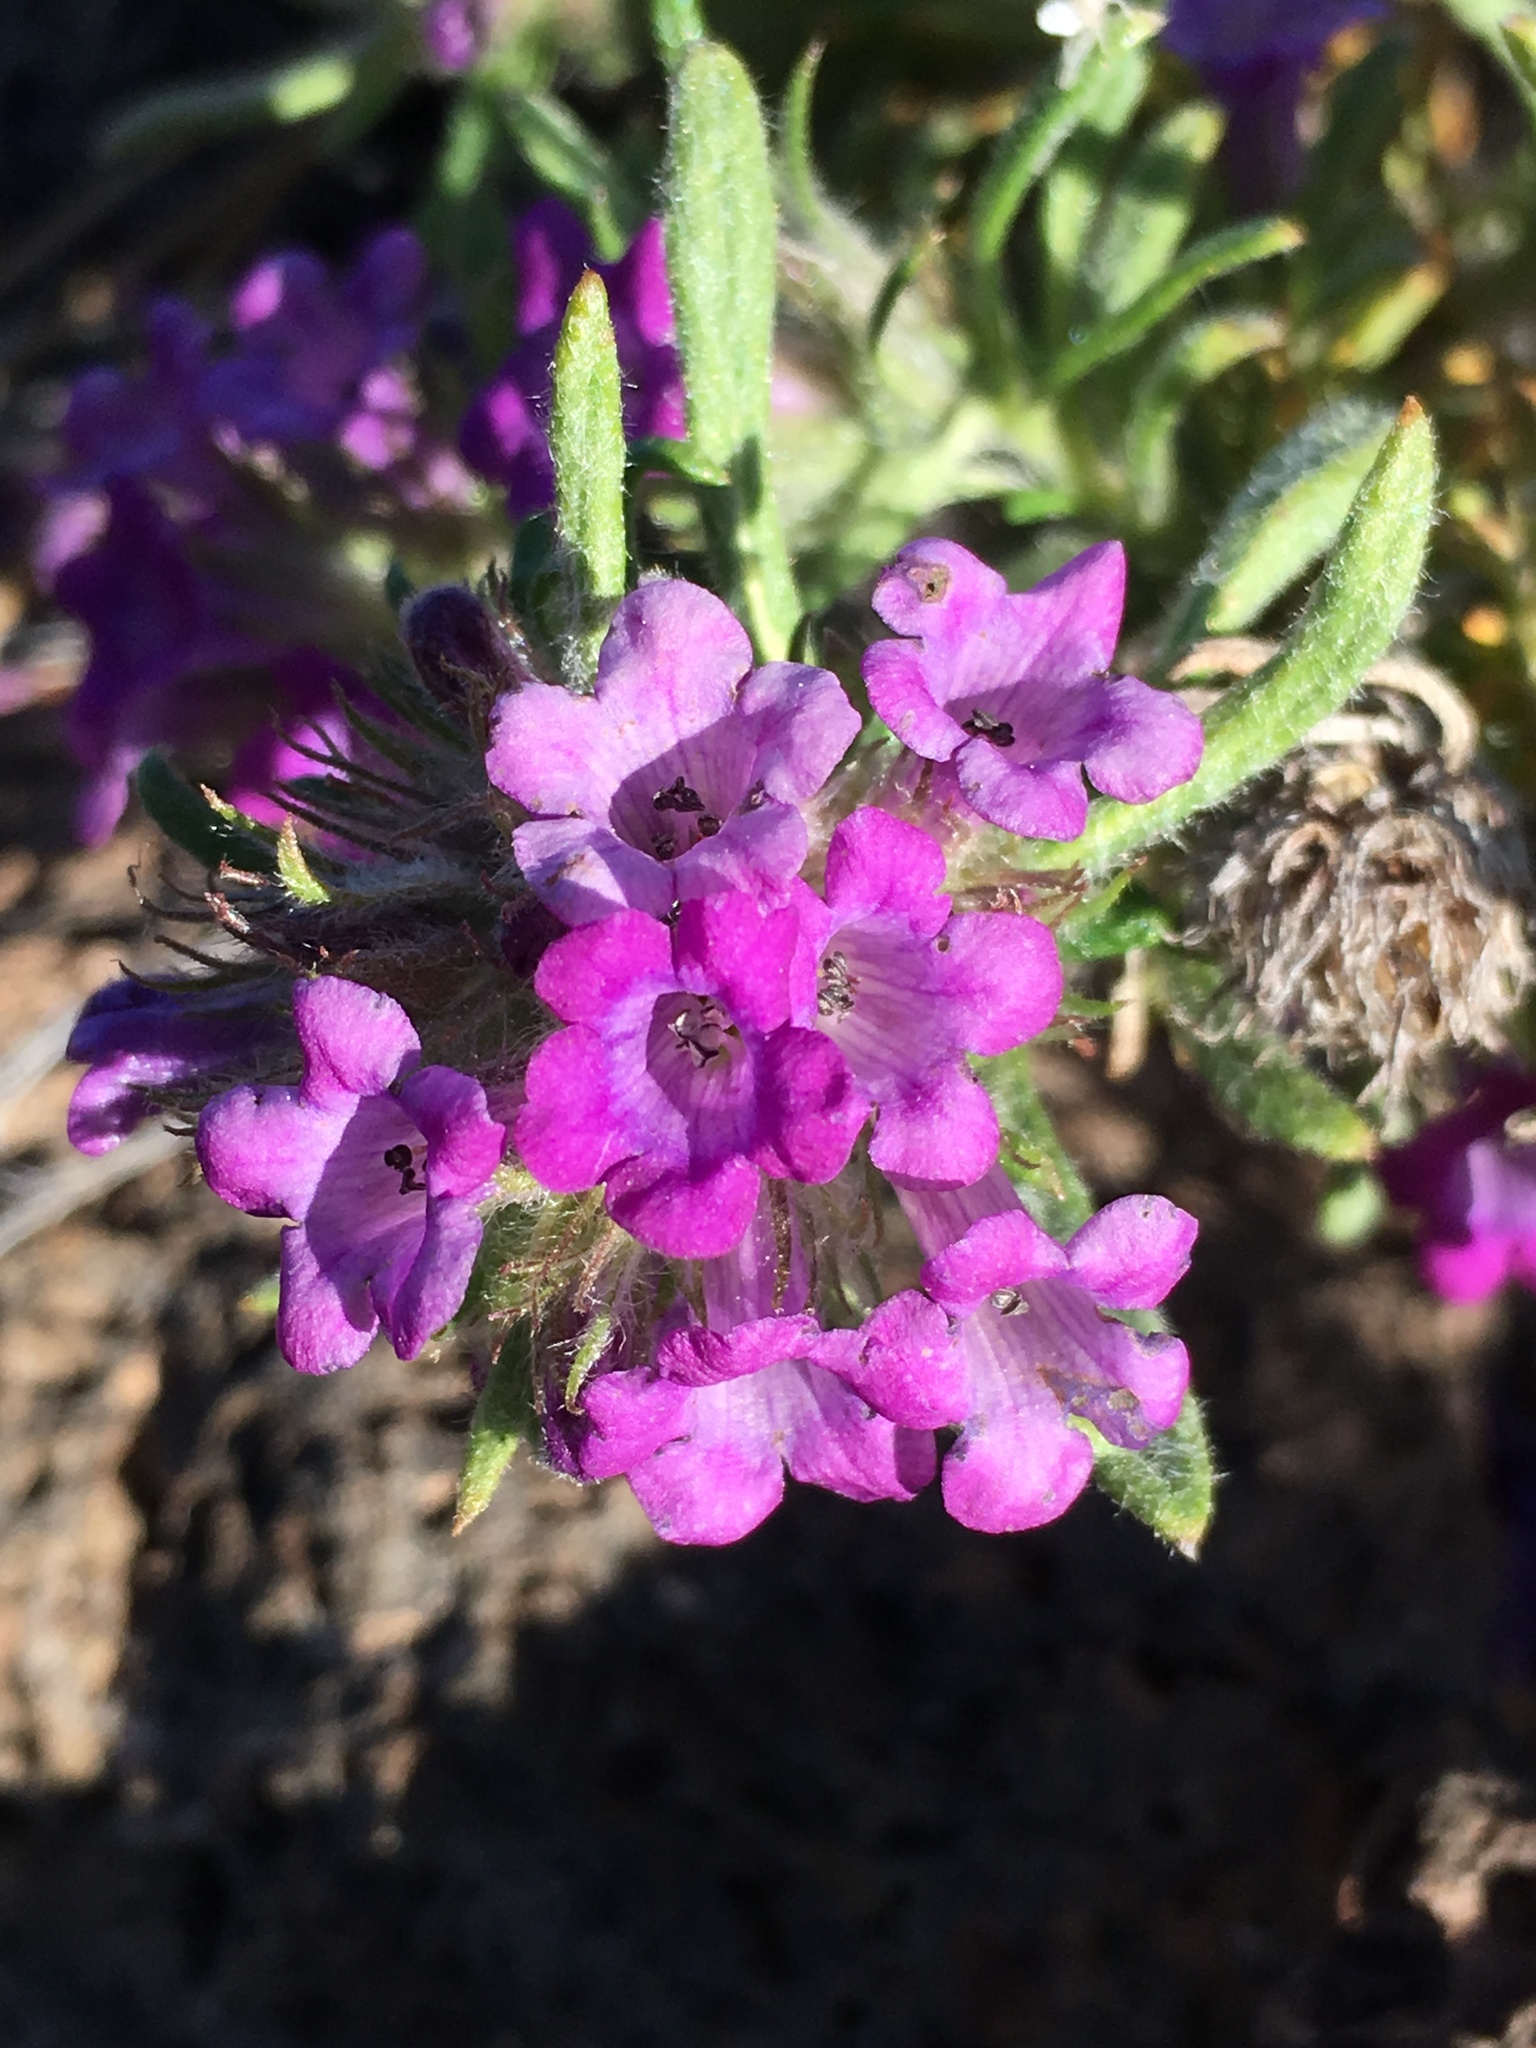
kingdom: Plantae
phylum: Tracheophyta
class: Magnoliopsida
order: Boraginales
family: Namaceae
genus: Nama
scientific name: Nama lobbii
